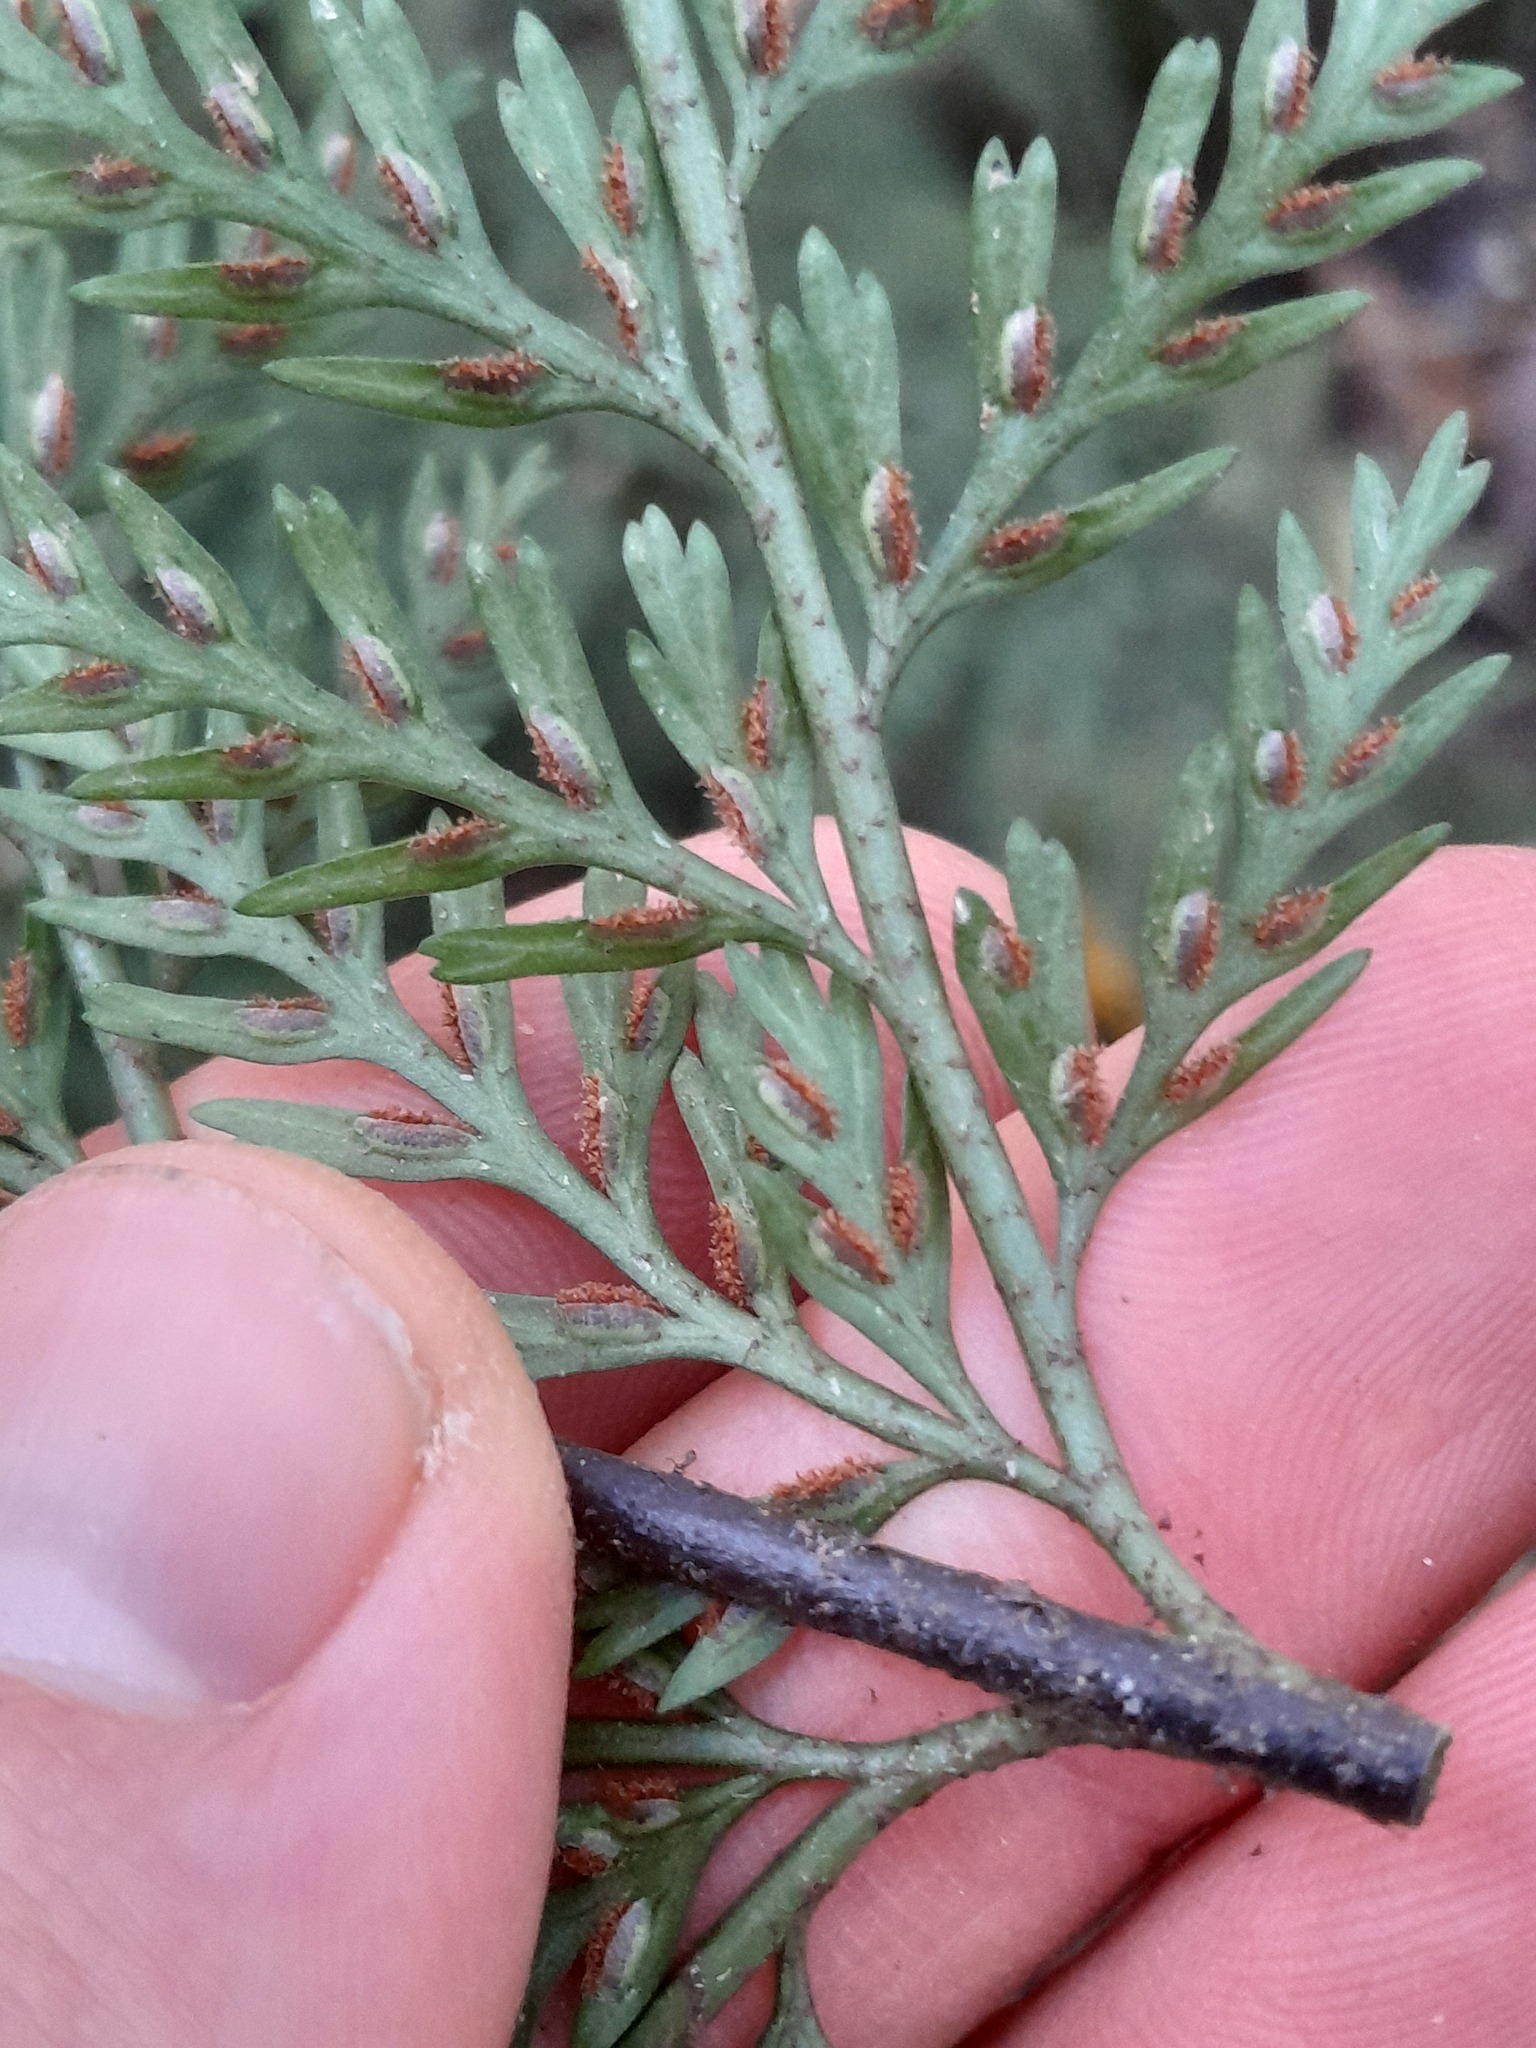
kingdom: Plantae
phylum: Tracheophyta
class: Polypodiopsida
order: Polypodiales
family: Aspleniaceae
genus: Asplenium
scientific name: Asplenium
